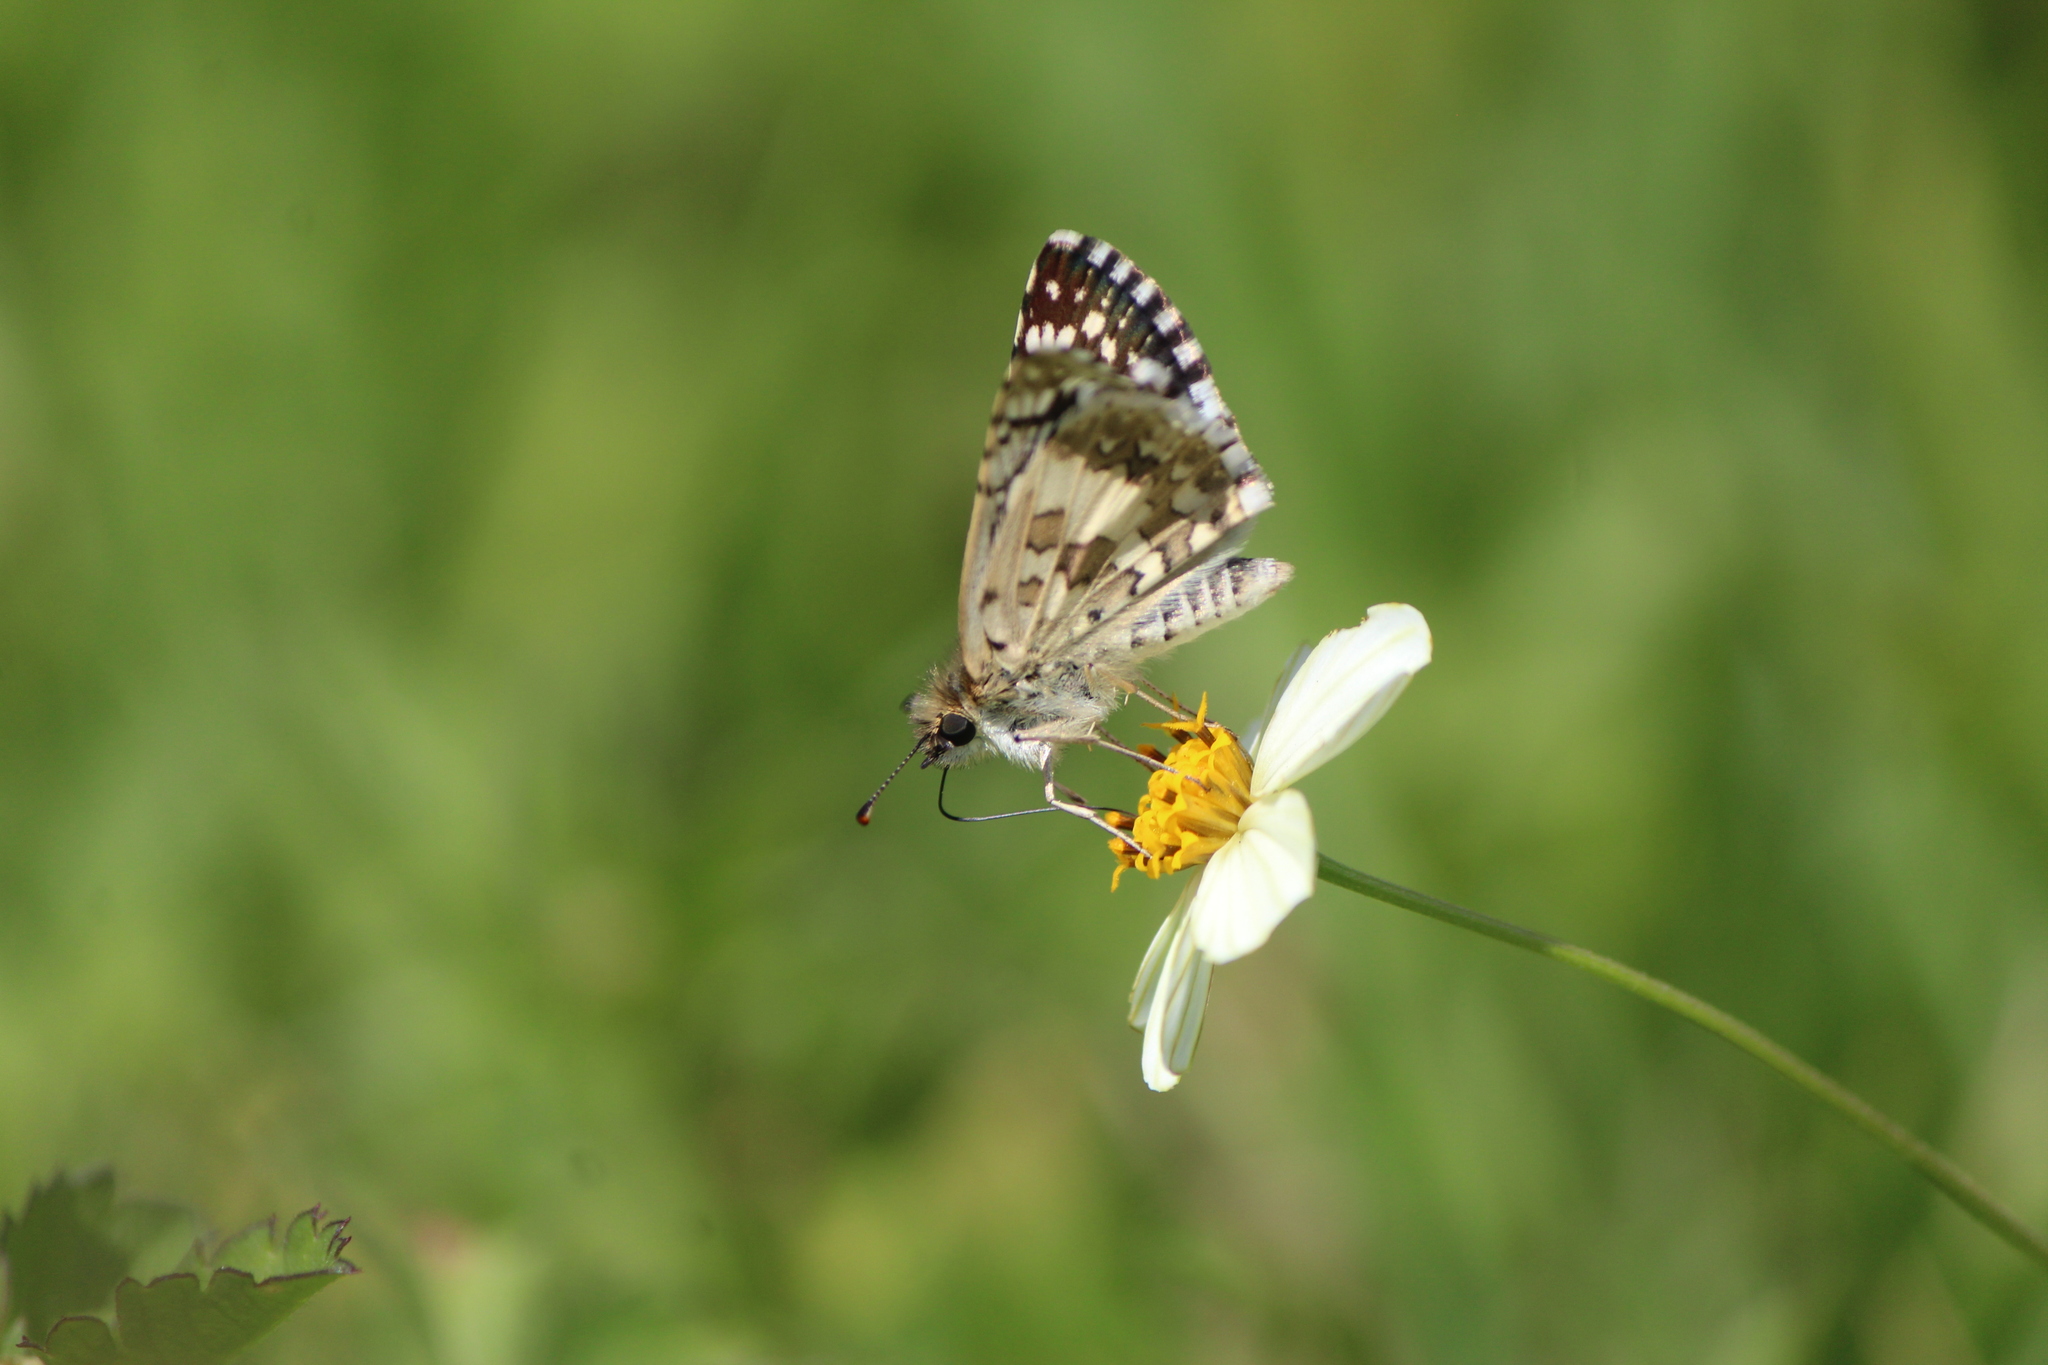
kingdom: Animalia
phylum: Arthropoda
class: Insecta
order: Lepidoptera
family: Hesperiidae
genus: Burnsius
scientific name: Burnsius communis
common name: Common checkered-skipper
